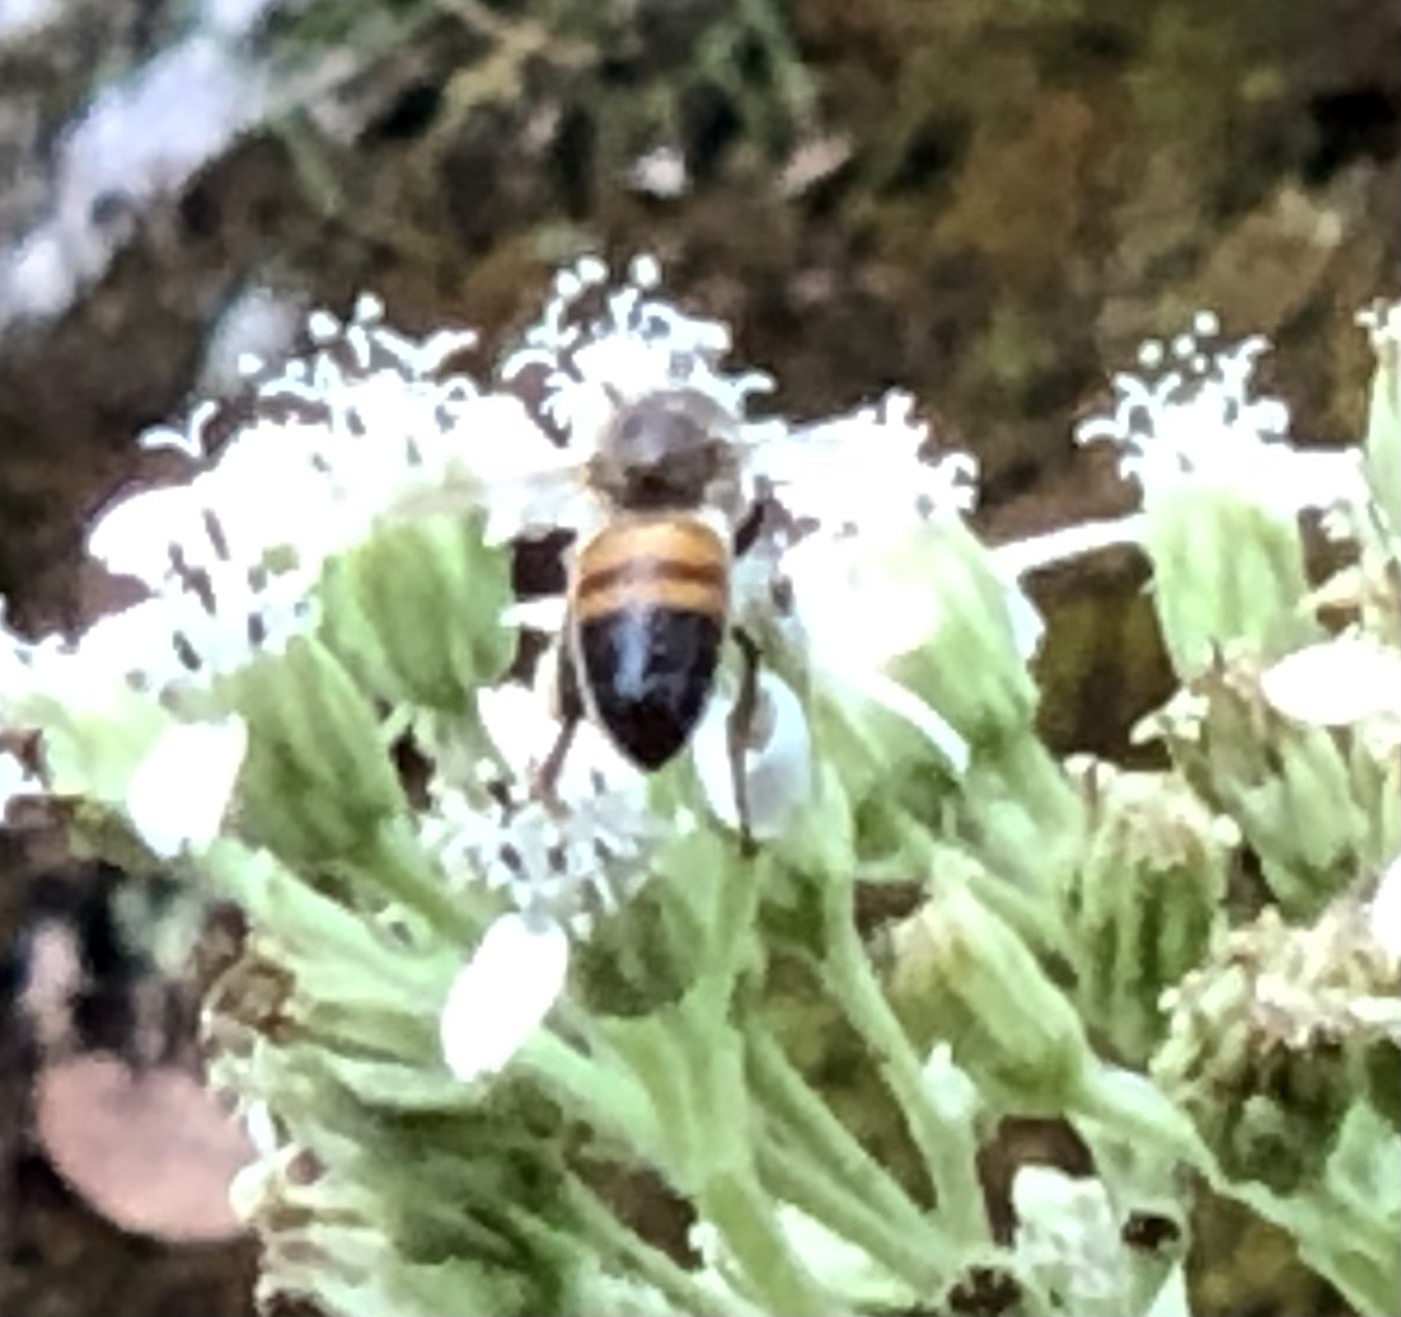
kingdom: Animalia
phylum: Arthropoda
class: Insecta
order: Hymenoptera
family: Apidae
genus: Apis
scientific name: Apis mellifera
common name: Honey bee
